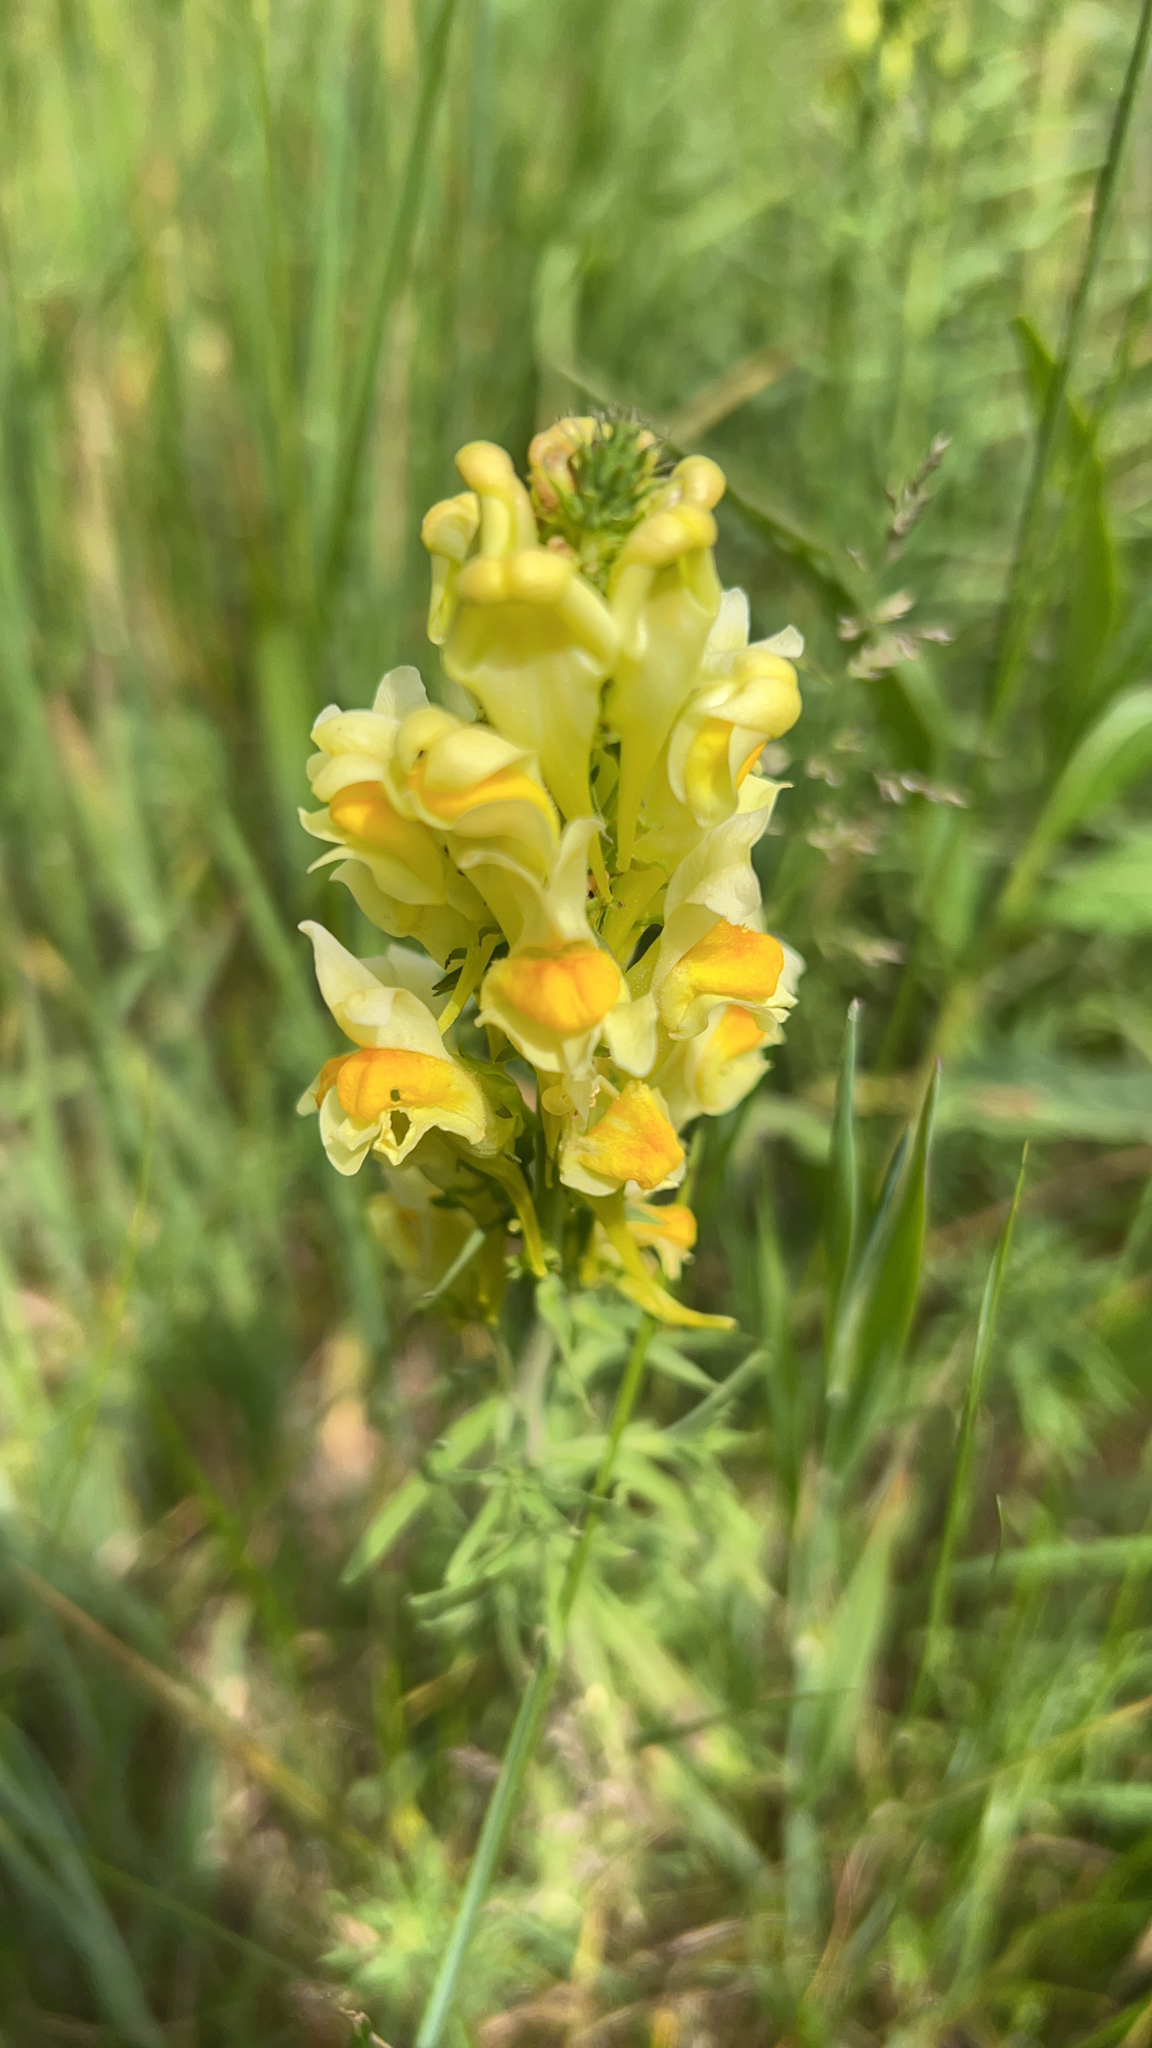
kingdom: Plantae
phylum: Tracheophyta
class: Magnoliopsida
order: Lamiales
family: Plantaginaceae
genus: Linaria
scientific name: Linaria vulgaris
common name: Butter and eggs
